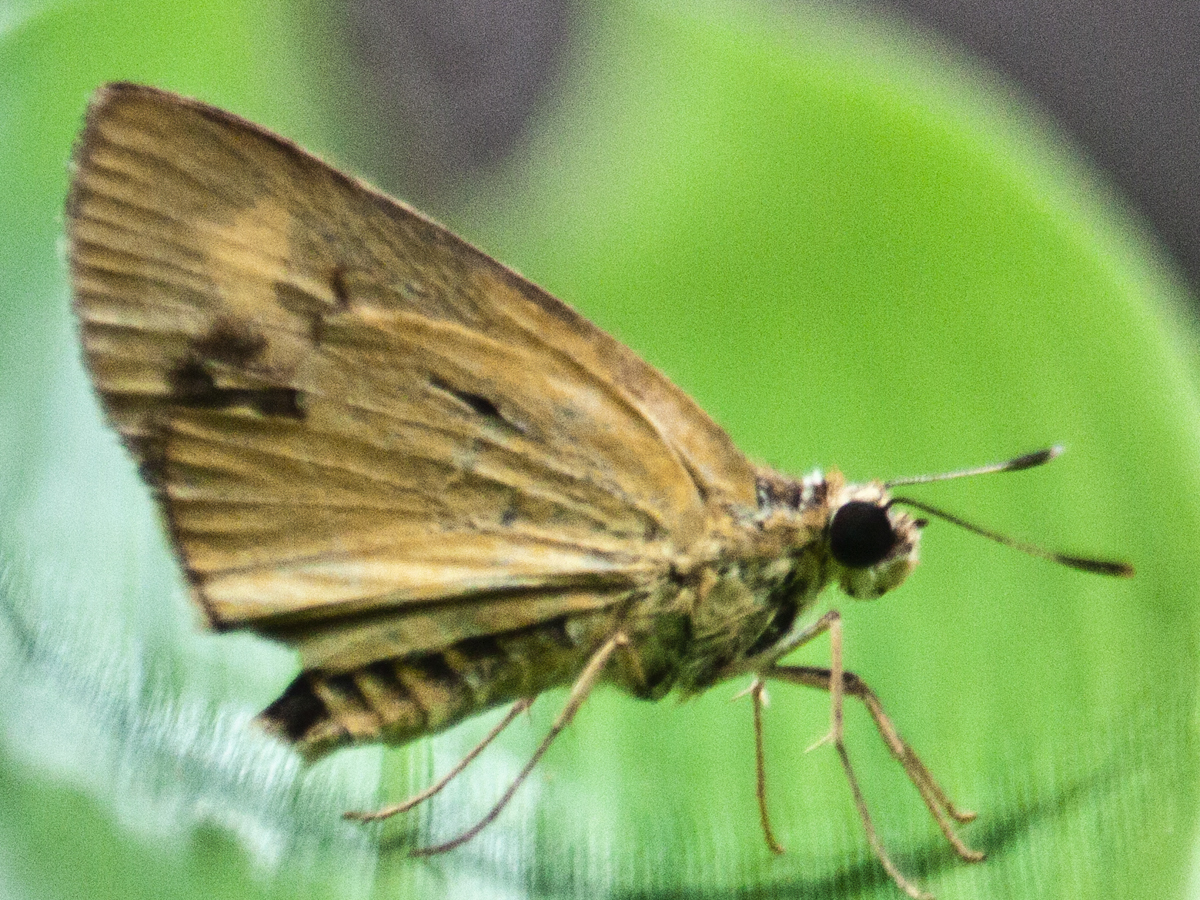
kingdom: Animalia
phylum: Arthropoda
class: Insecta
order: Lepidoptera
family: Hesperiidae
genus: Cupitha
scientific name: Cupitha purreea
